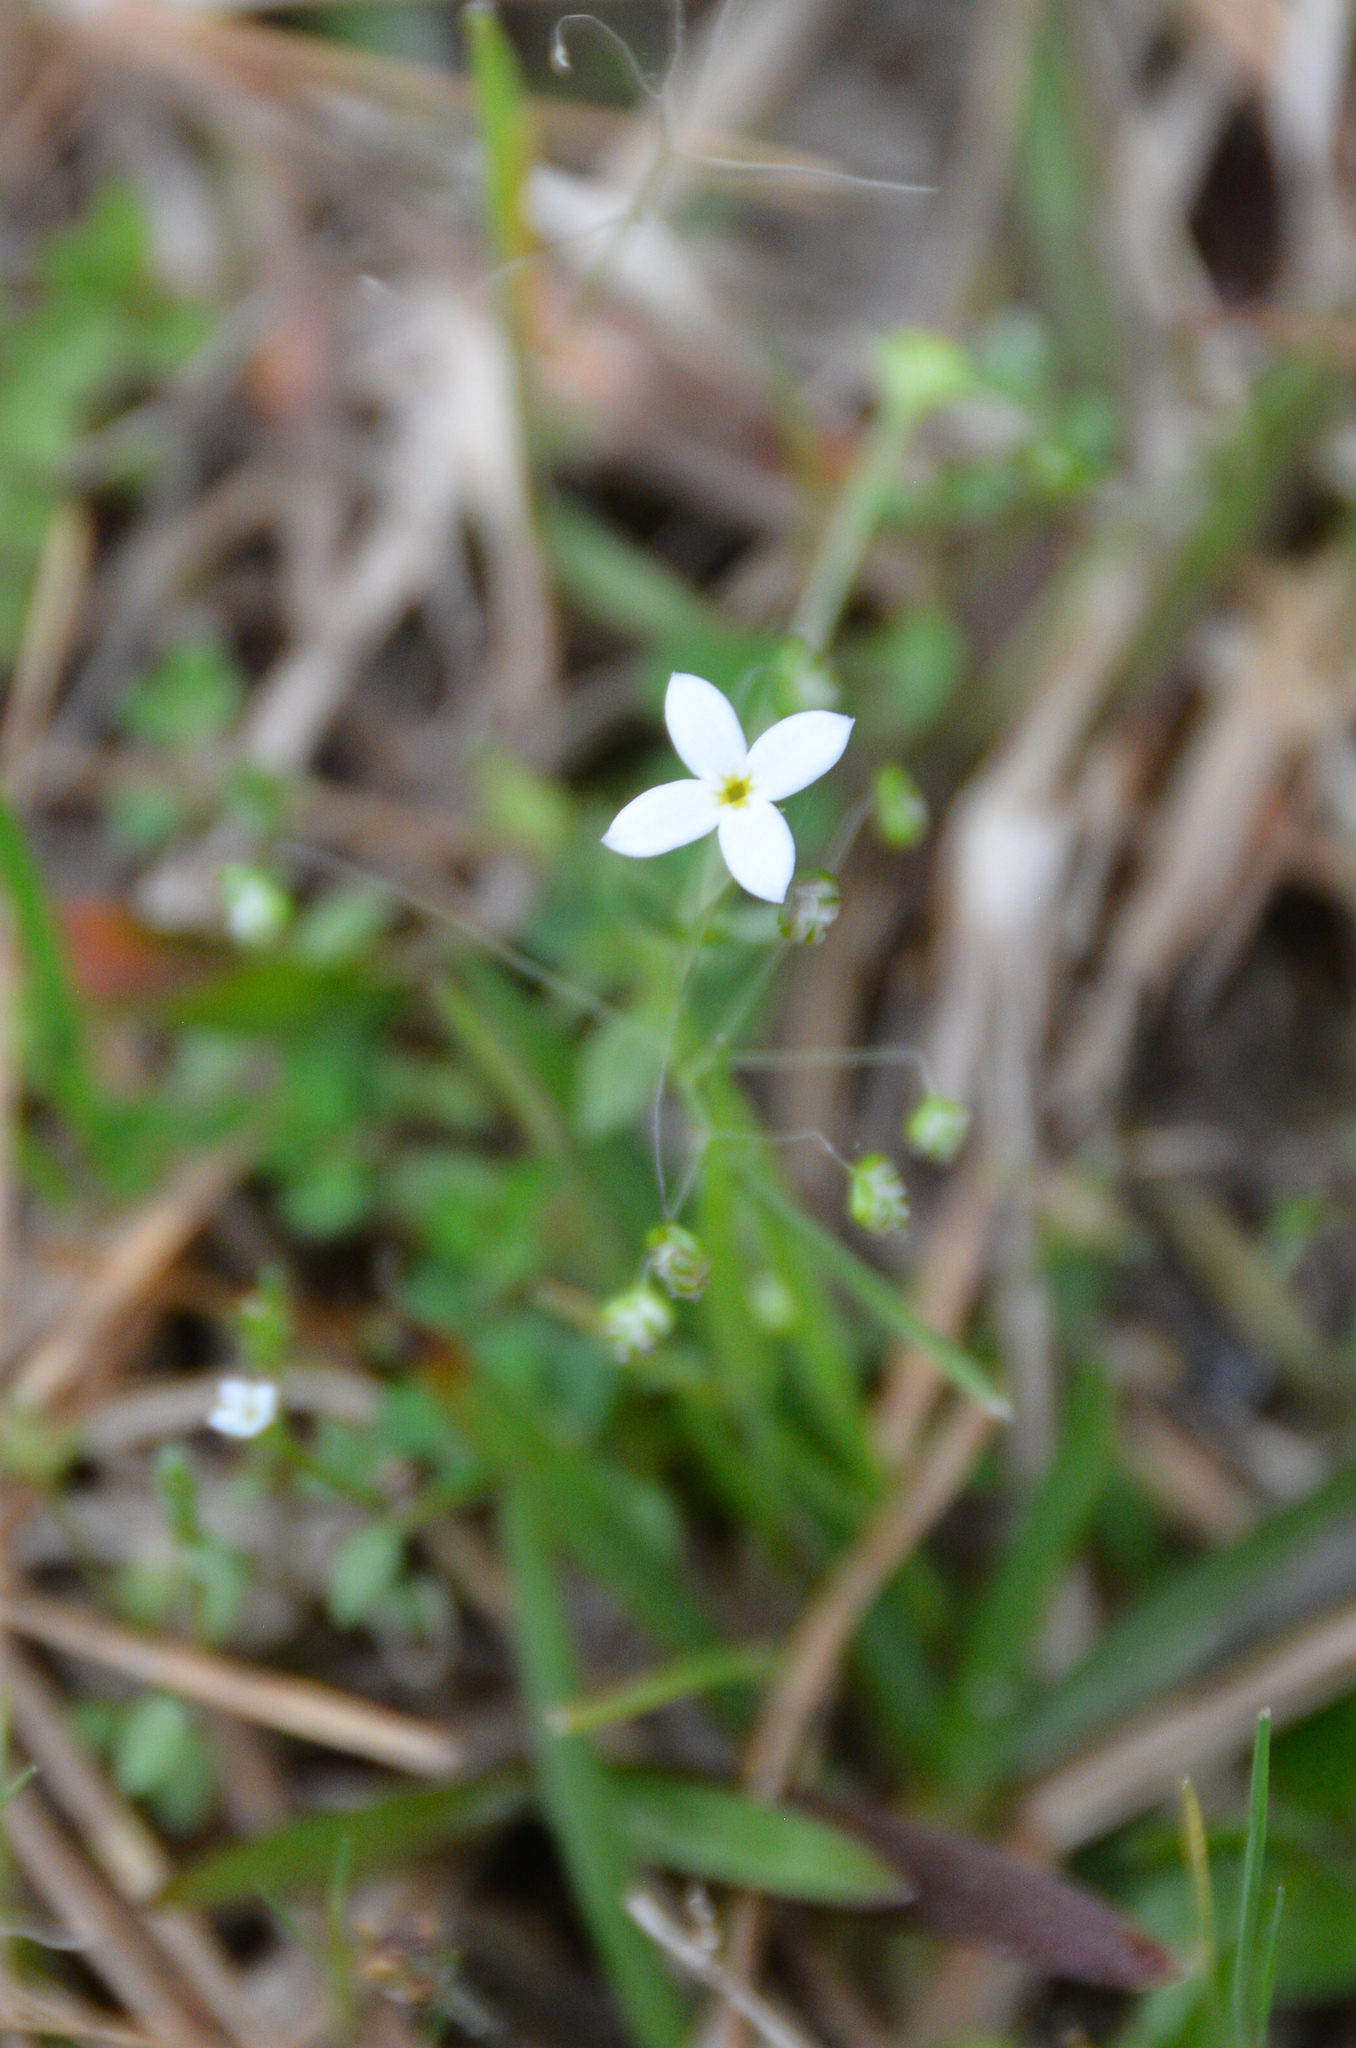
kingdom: Plantae
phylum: Tracheophyta
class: Magnoliopsida
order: Gentianales
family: Rubiaceae
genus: Houstonia
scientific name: Houstonia micrantha
